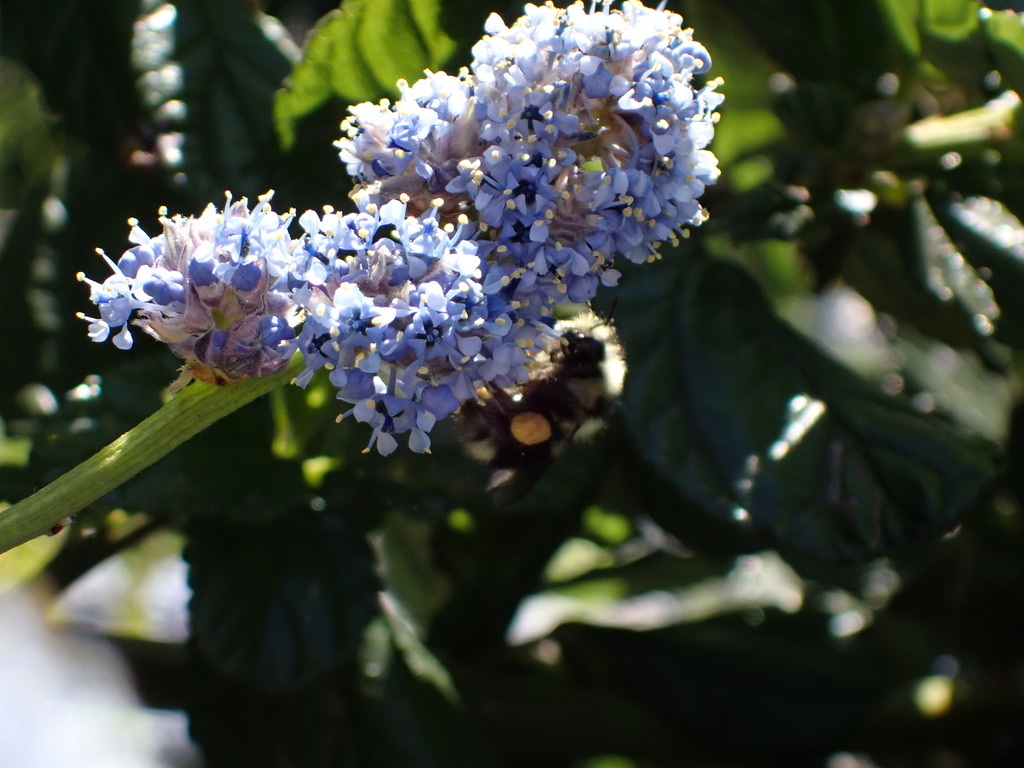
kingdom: Animalia
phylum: Arthropoda
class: Insecta
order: Hymenoptera
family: Apidae
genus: Bombus
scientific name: Bombus melanopygus
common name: Black tail bumble bee
